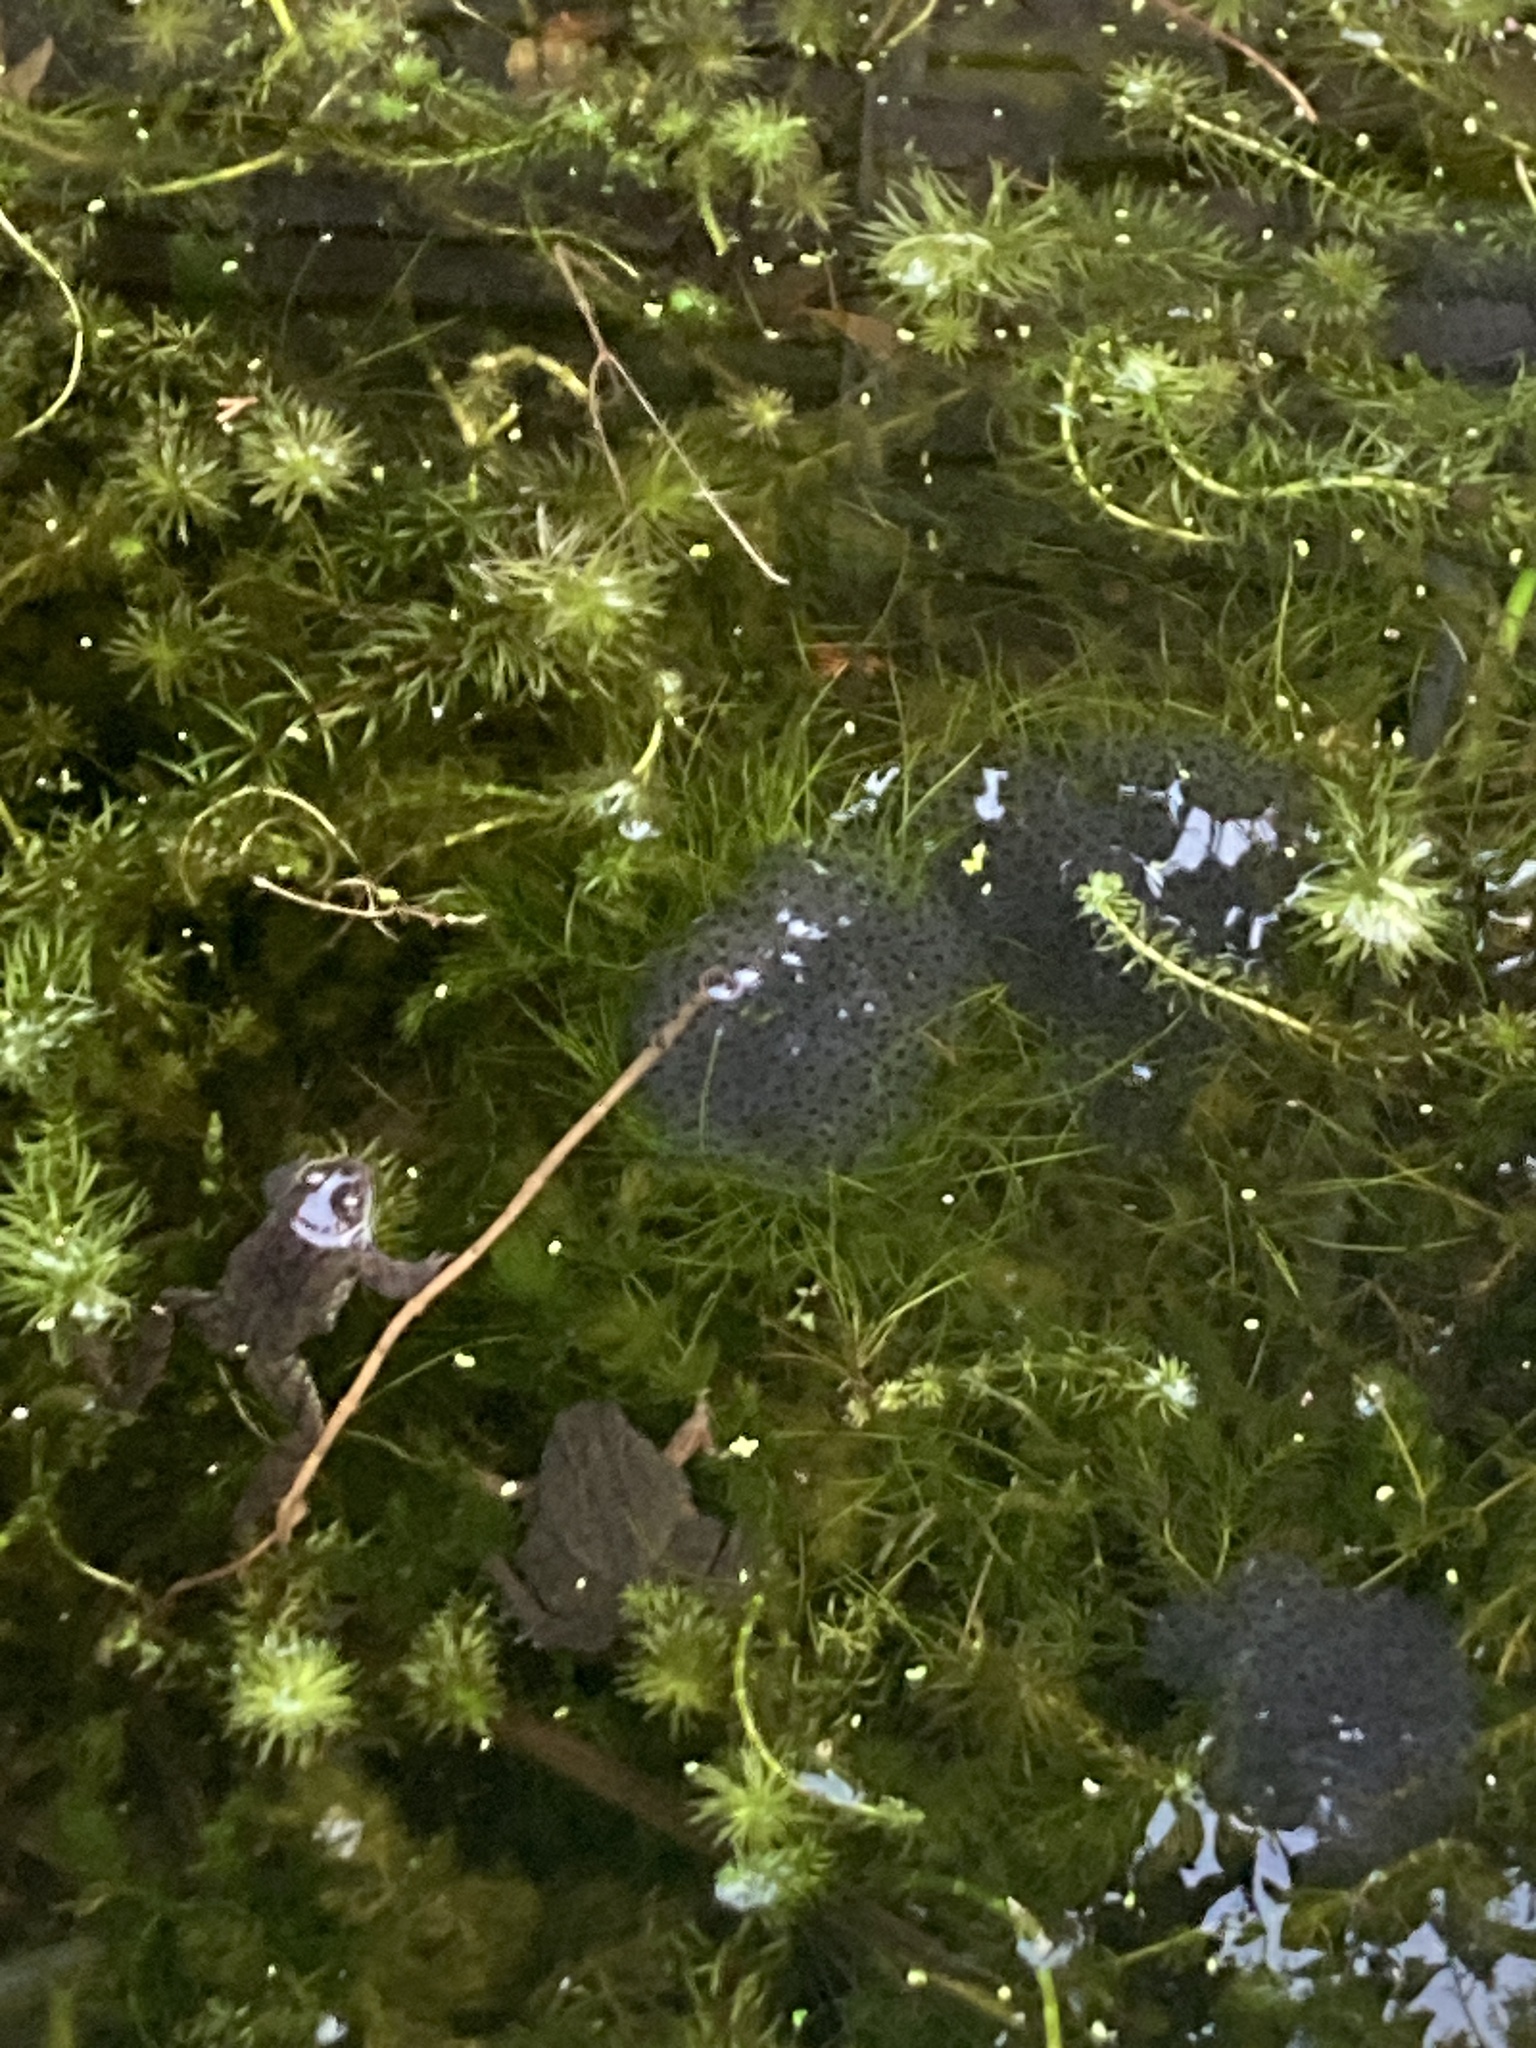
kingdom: Animalia
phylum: Chordata
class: Amphibia
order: Anura
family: Ranidae
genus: Rana
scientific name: Rana temporaria
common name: Common frog
